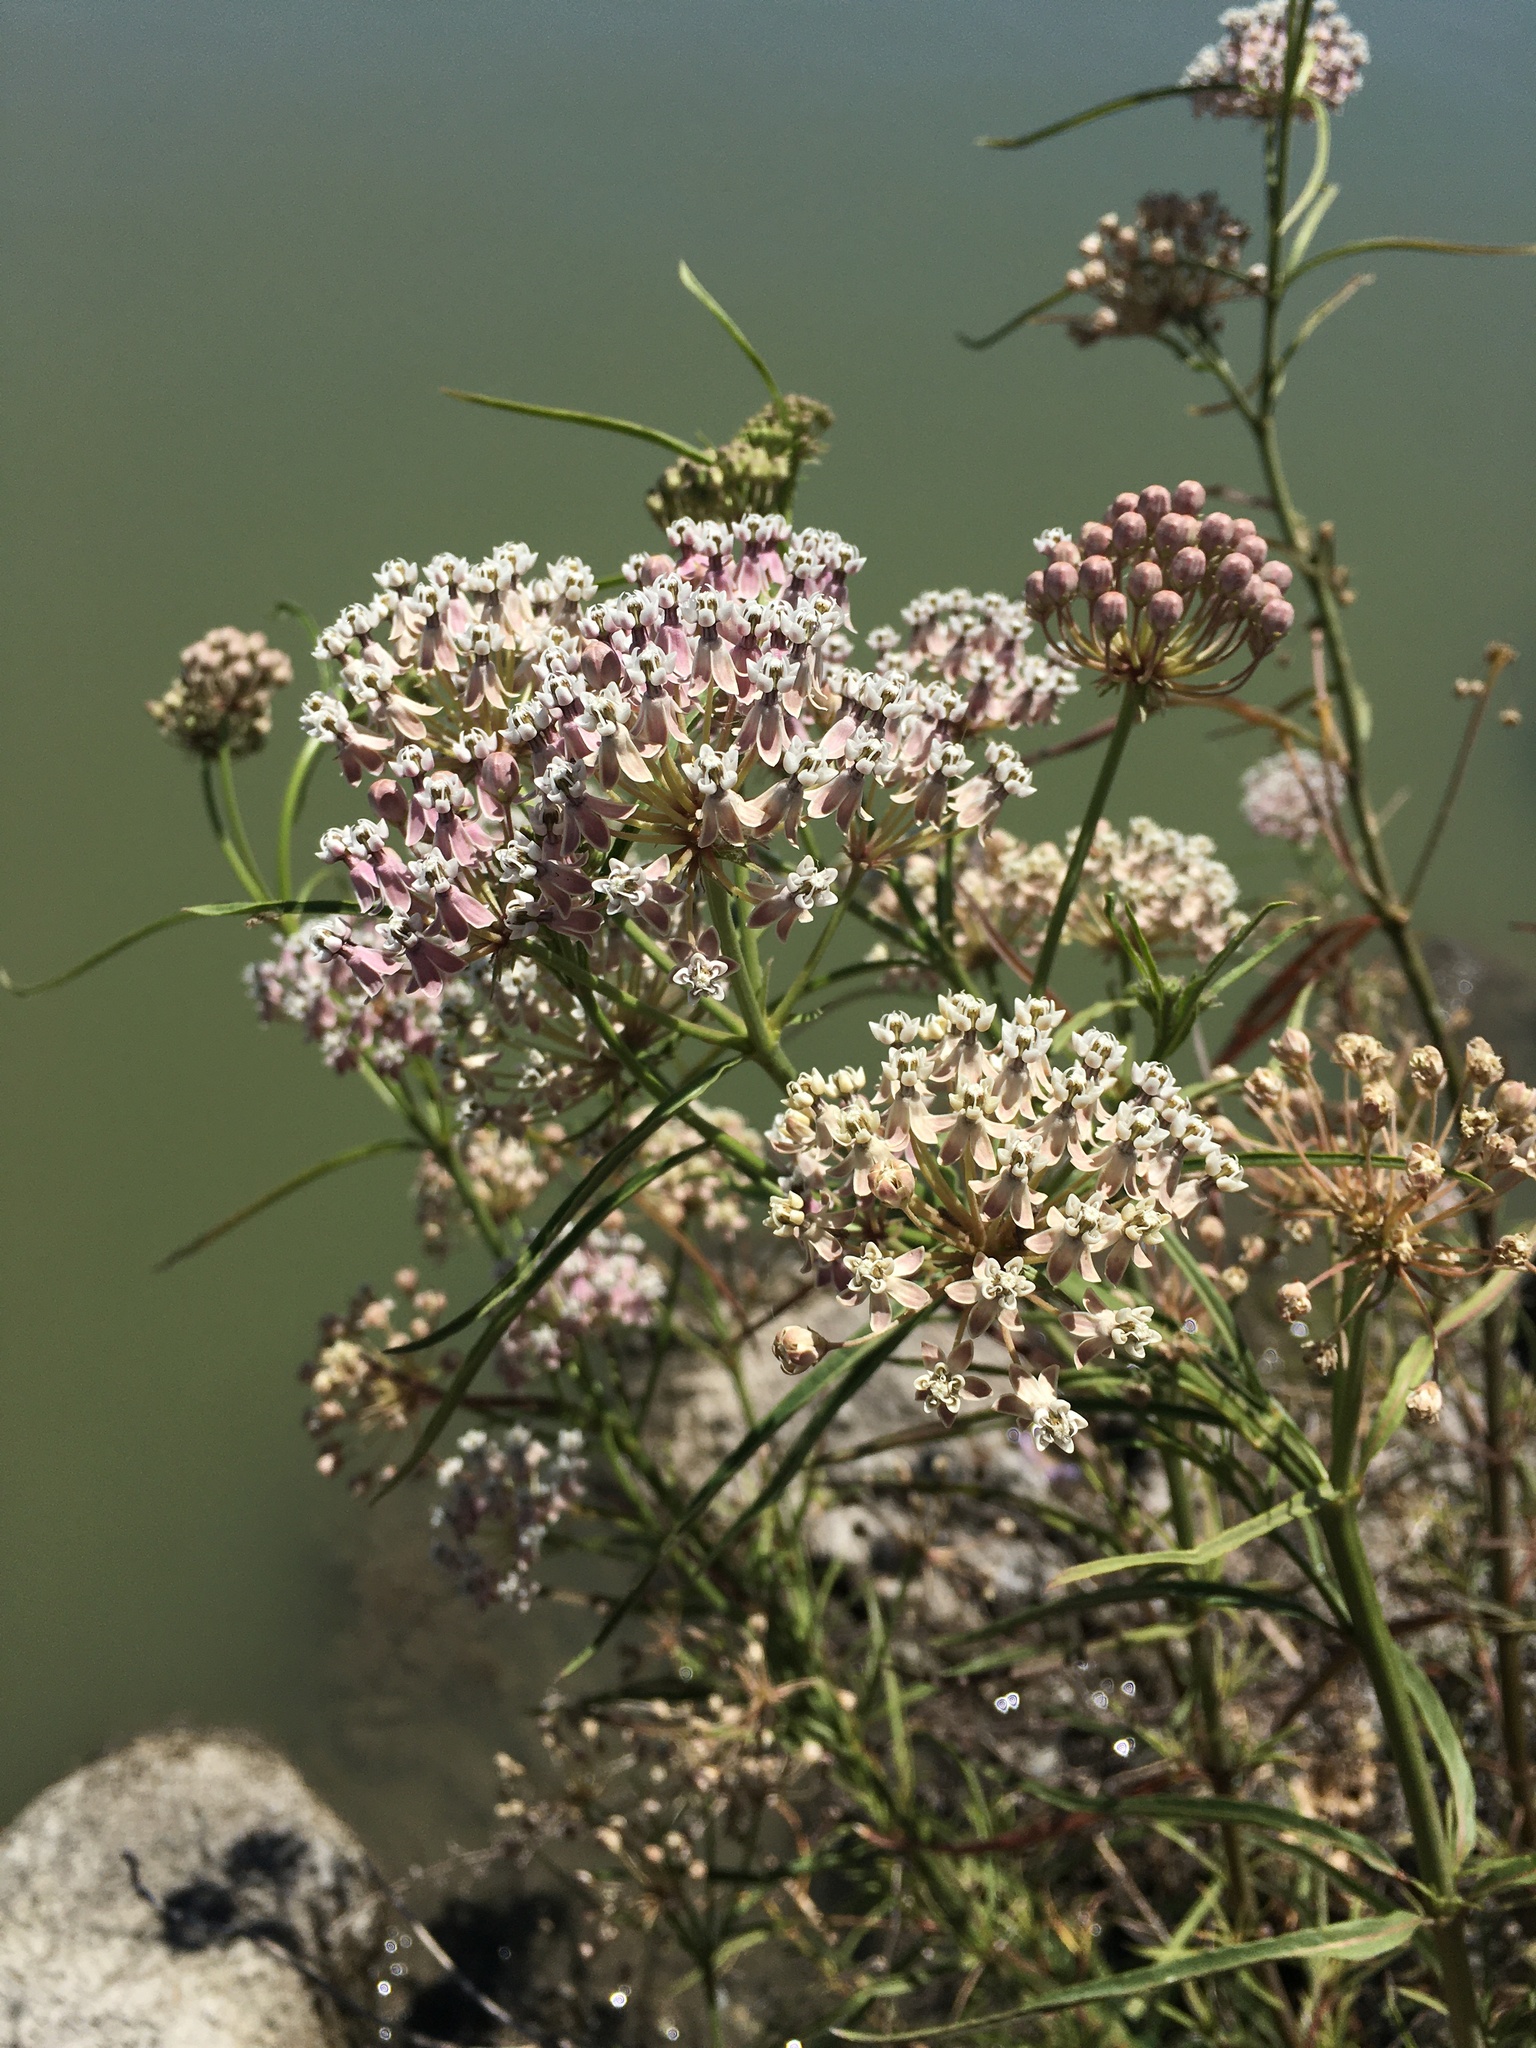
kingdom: Plantae
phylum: Tracheophyta
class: Magnoliopsida
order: Gentianales
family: Apocynaceae
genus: Asclepias
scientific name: Asclepias fascicularis
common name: Mexican milkweed
